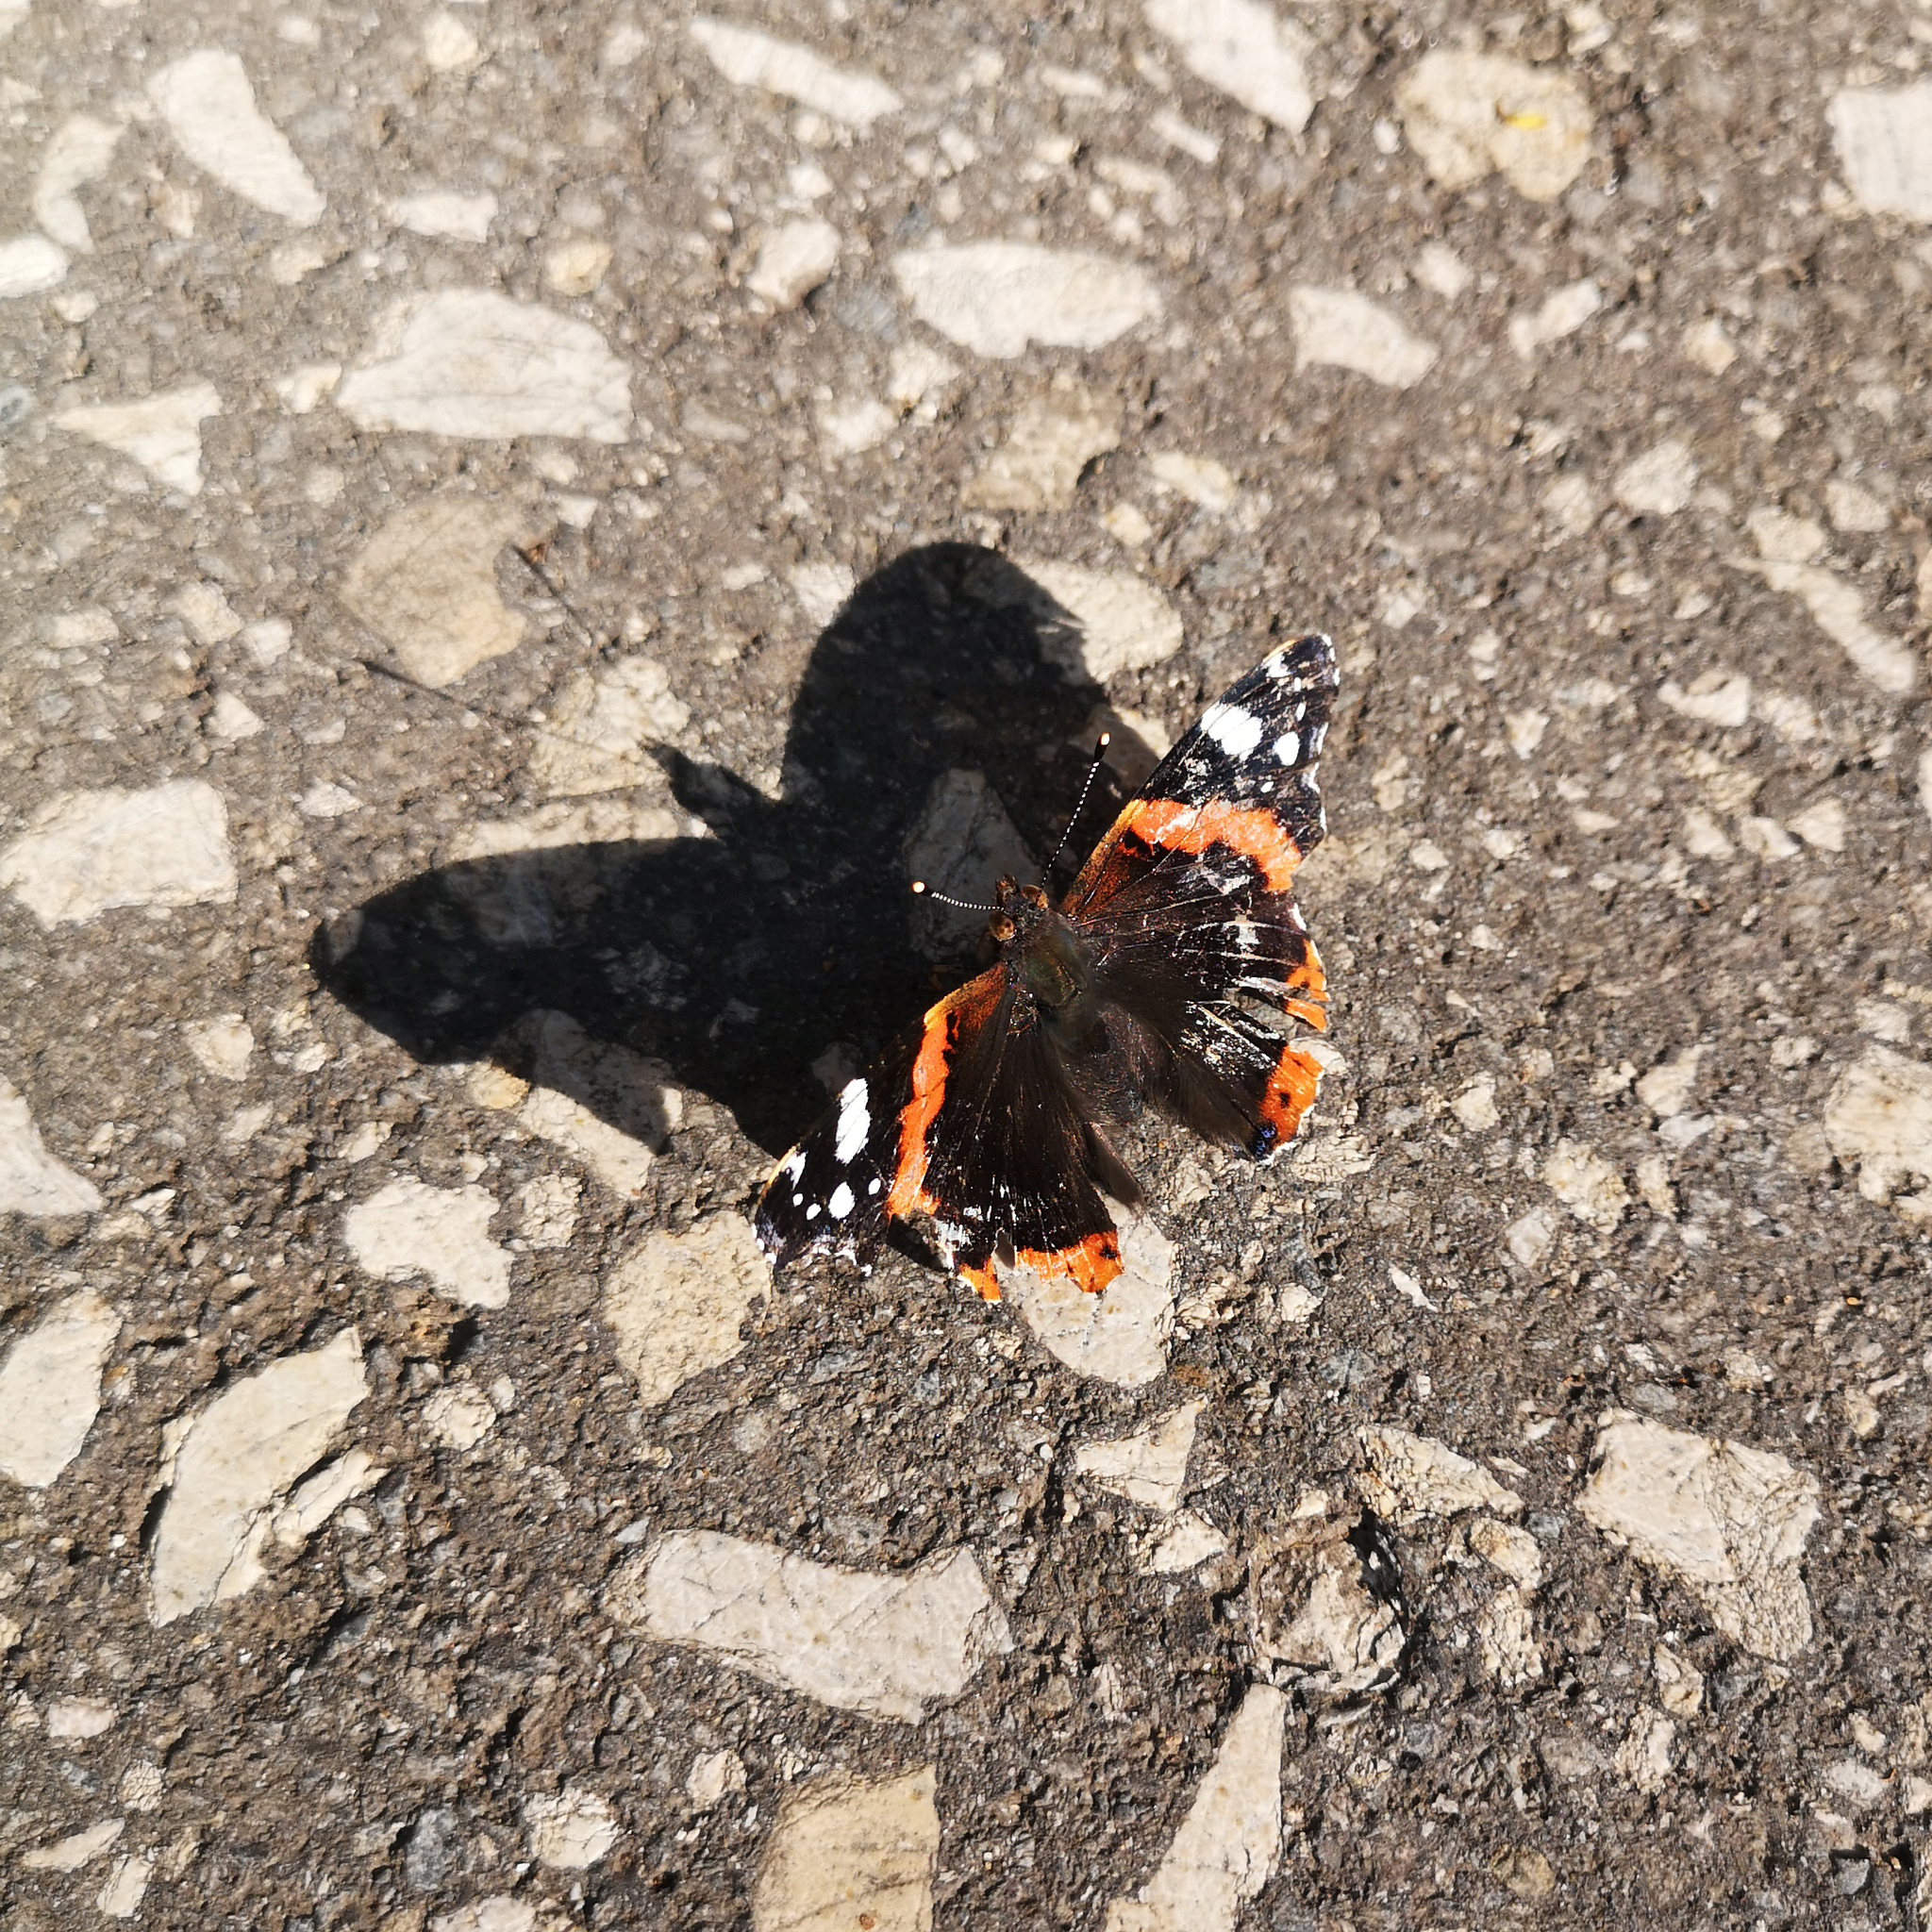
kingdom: Animalia
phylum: Arthropoda
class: Insecta
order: Lepidoptera
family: Nymphalidae
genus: Vanessa
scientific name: Vanessa atalanta
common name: Red admiral
